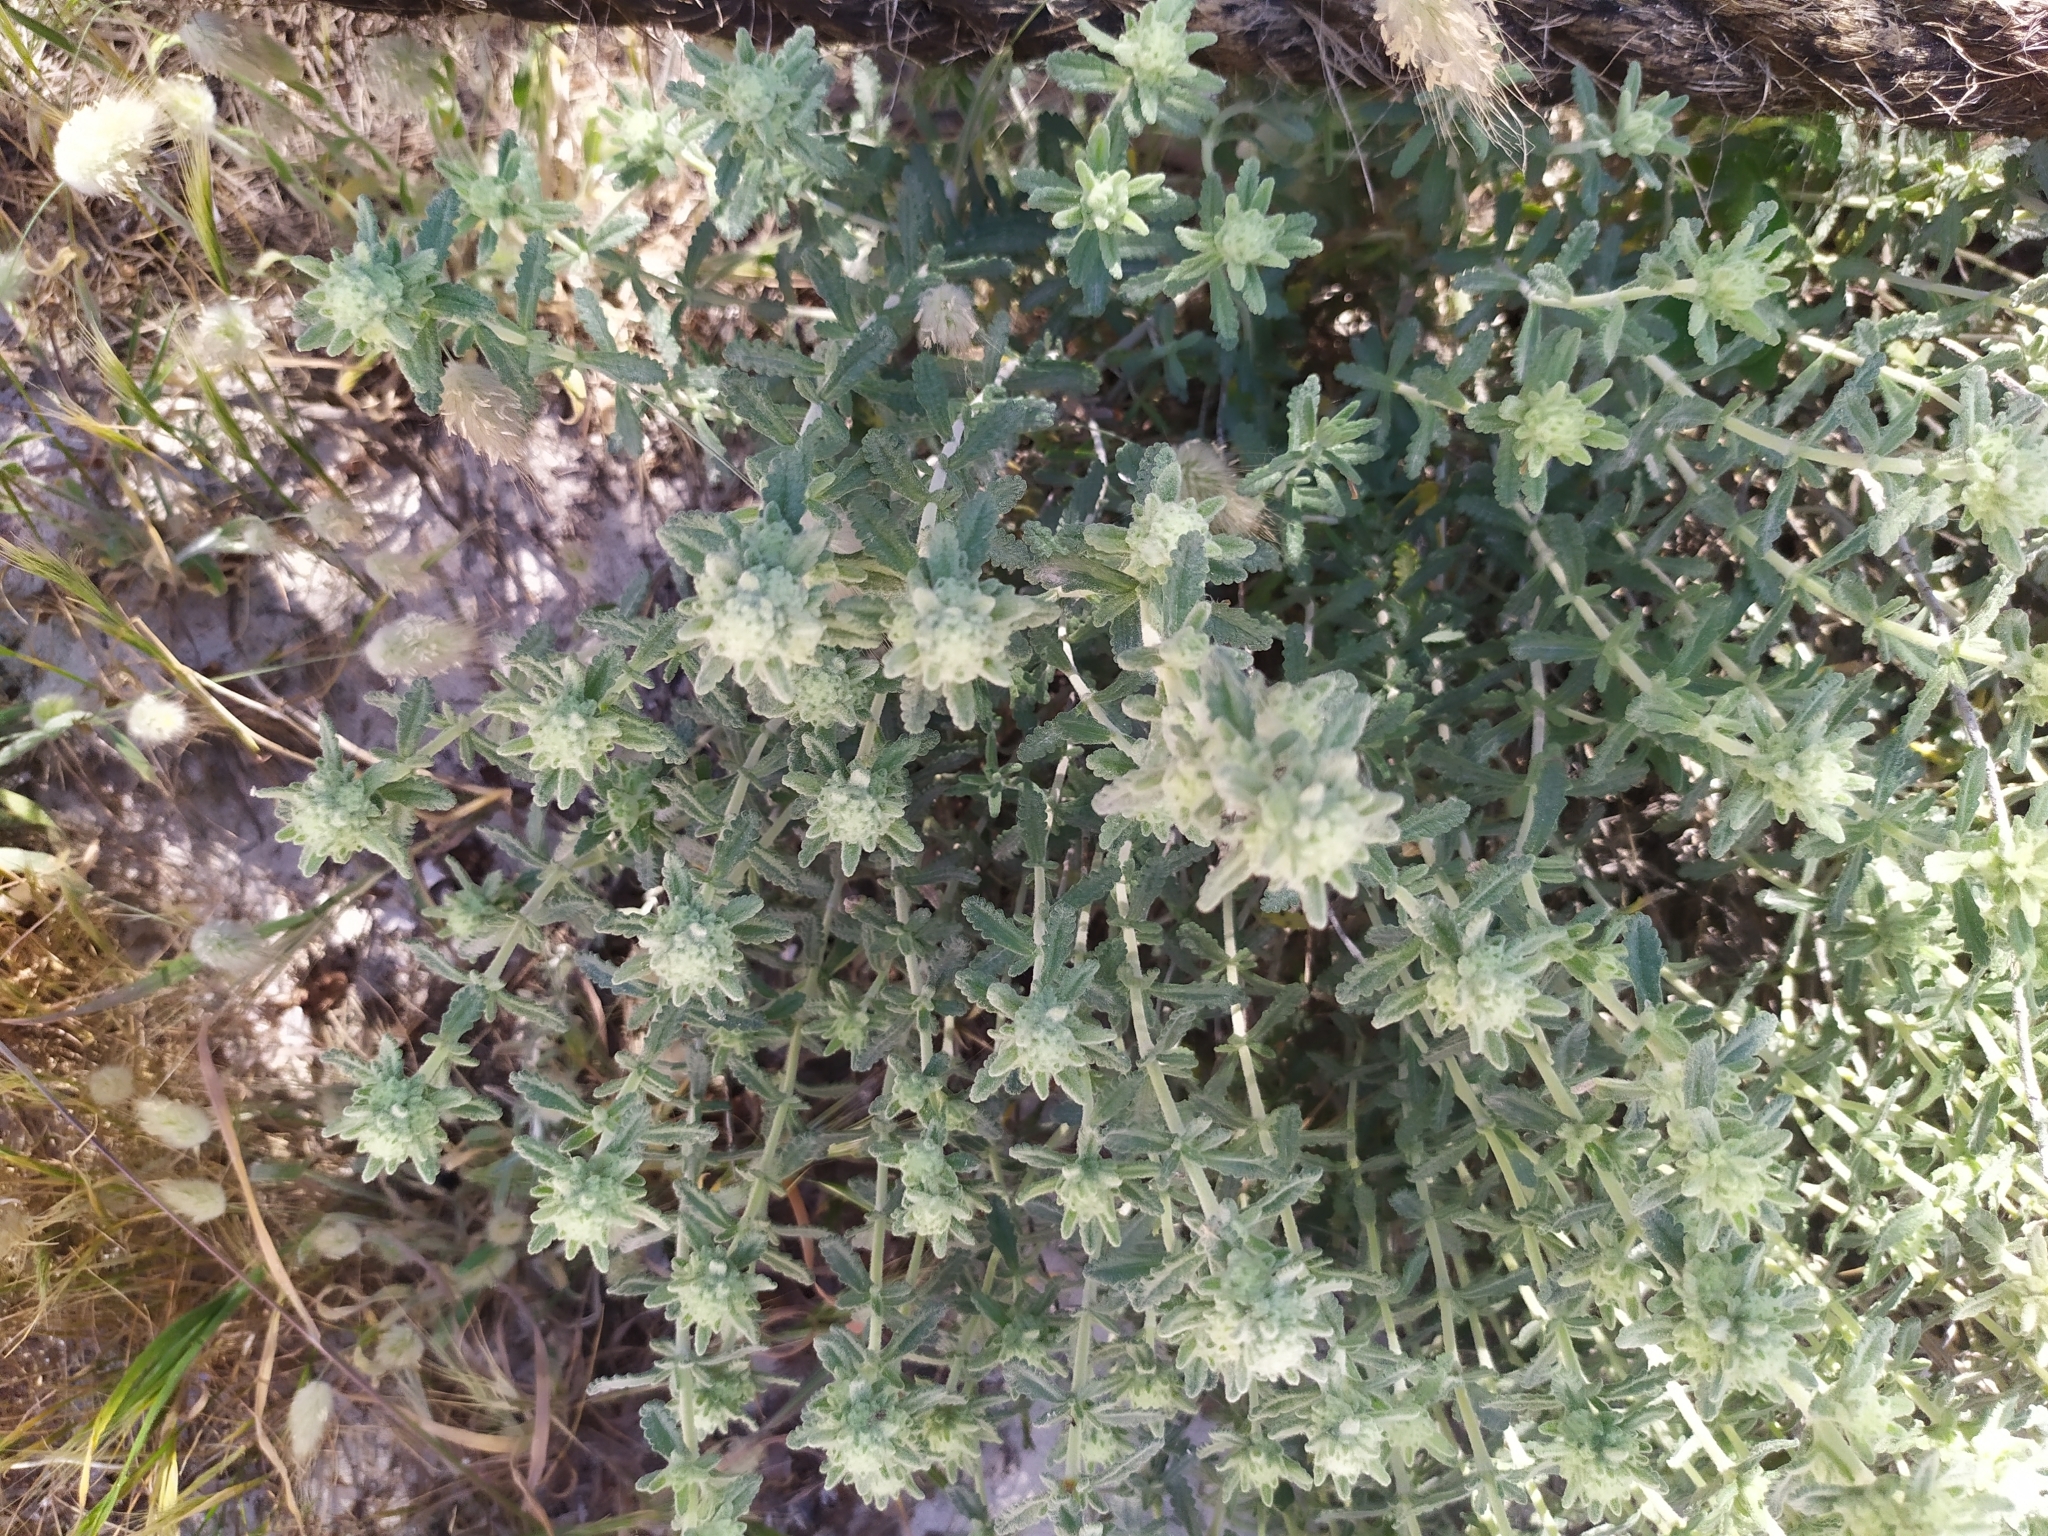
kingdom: Plantae
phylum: Tracheophyta
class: Magnoliopsida
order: Lamiales
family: Lamiaceae
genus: Teucrium
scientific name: Teucrium dunense
